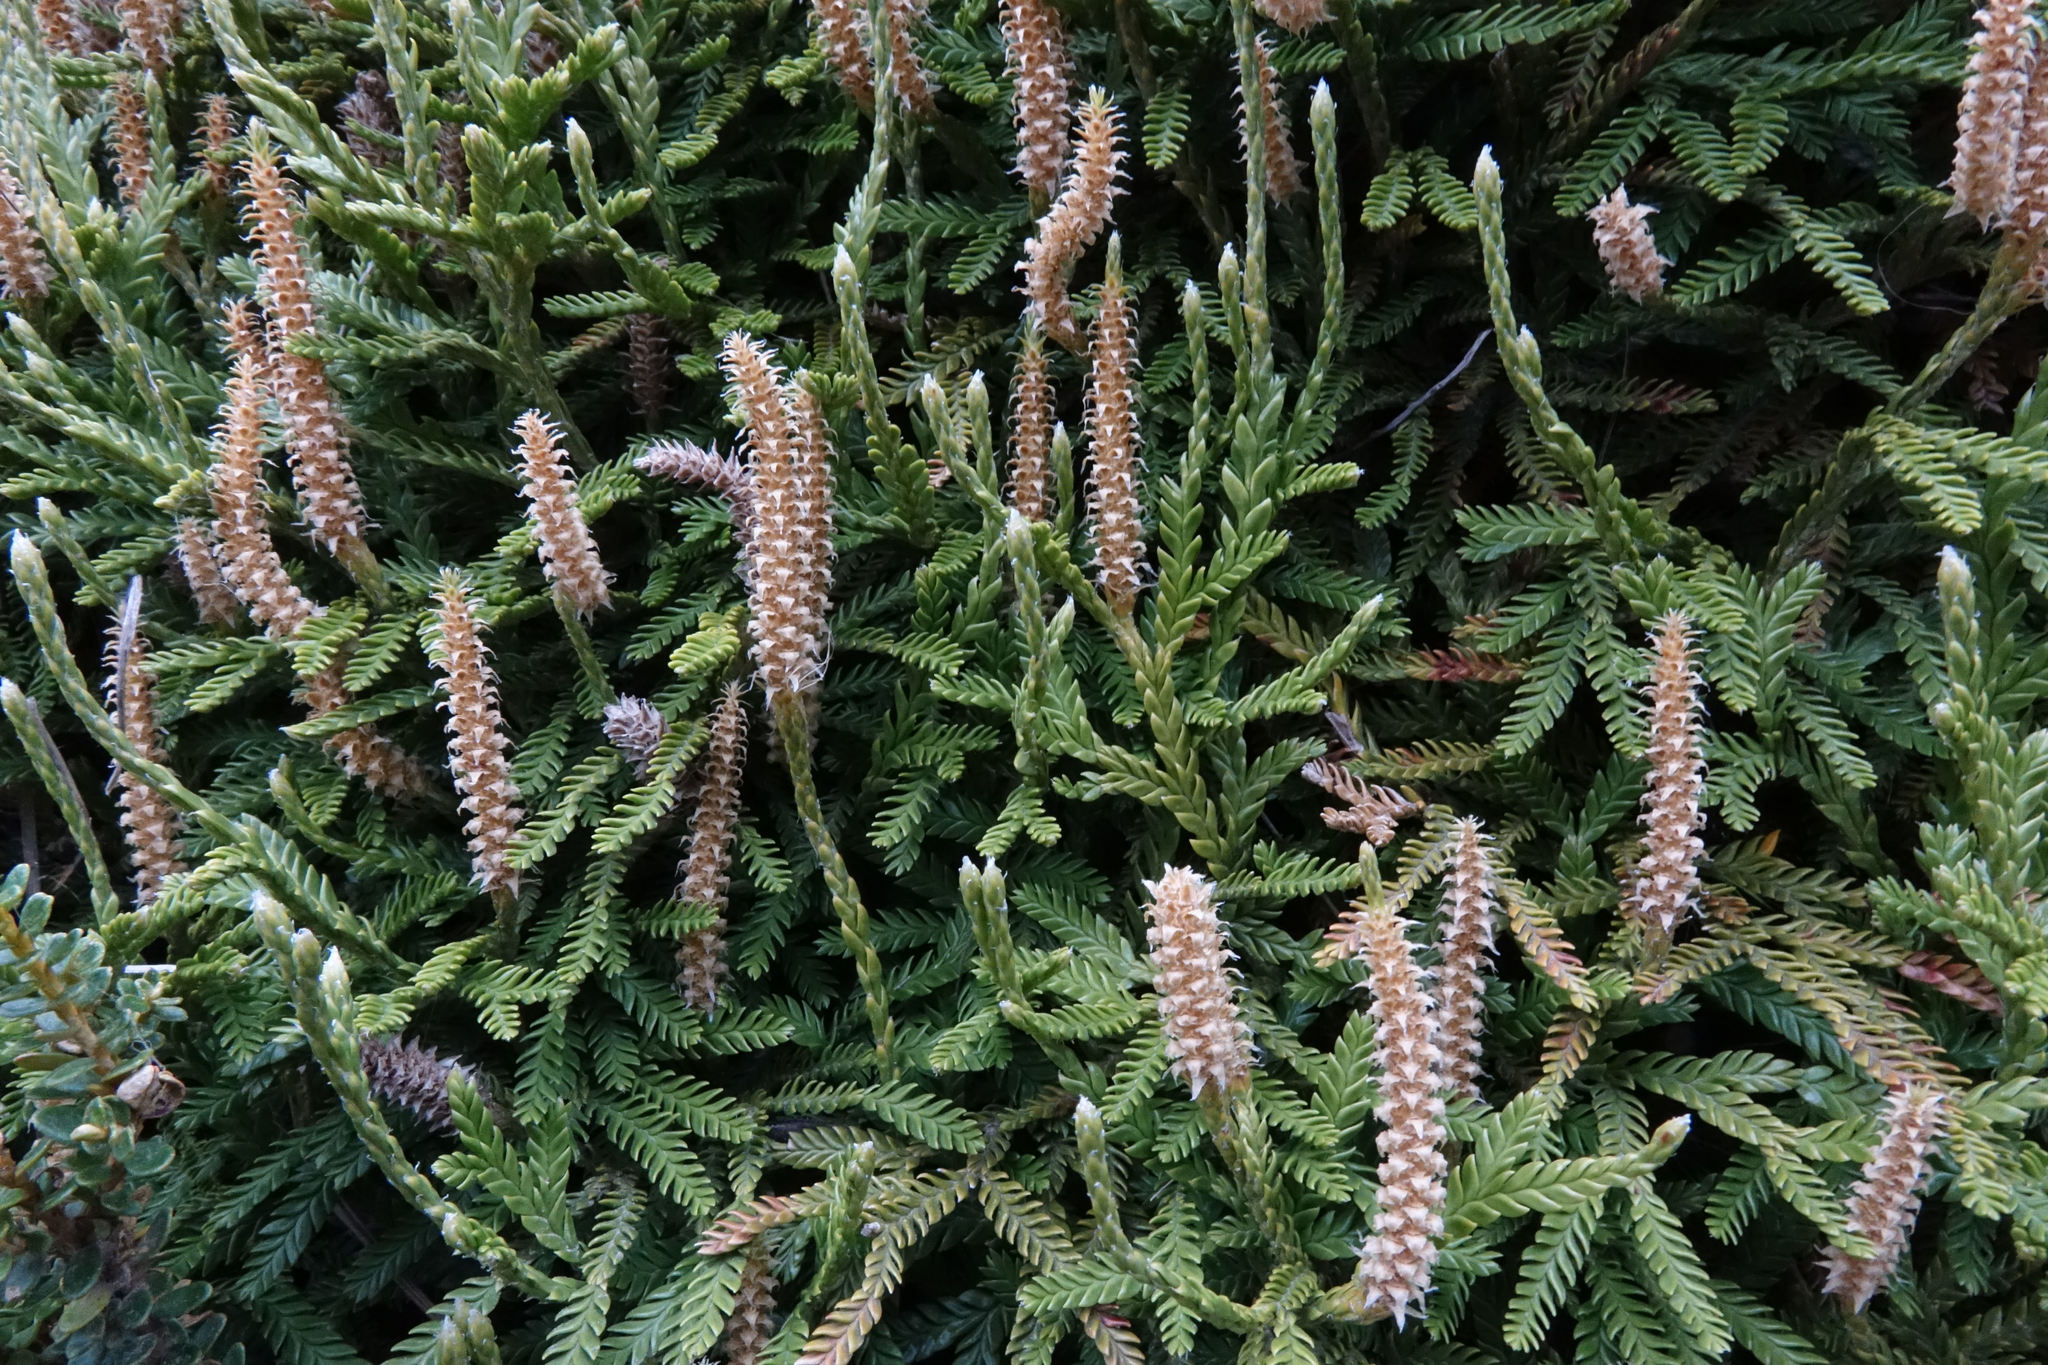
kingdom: Plantae
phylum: Tracheophyta
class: Lycopodiopsida
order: Lycopodiales
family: Lycopodiaceae
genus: Diphasium
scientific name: Diphasium scariosum
